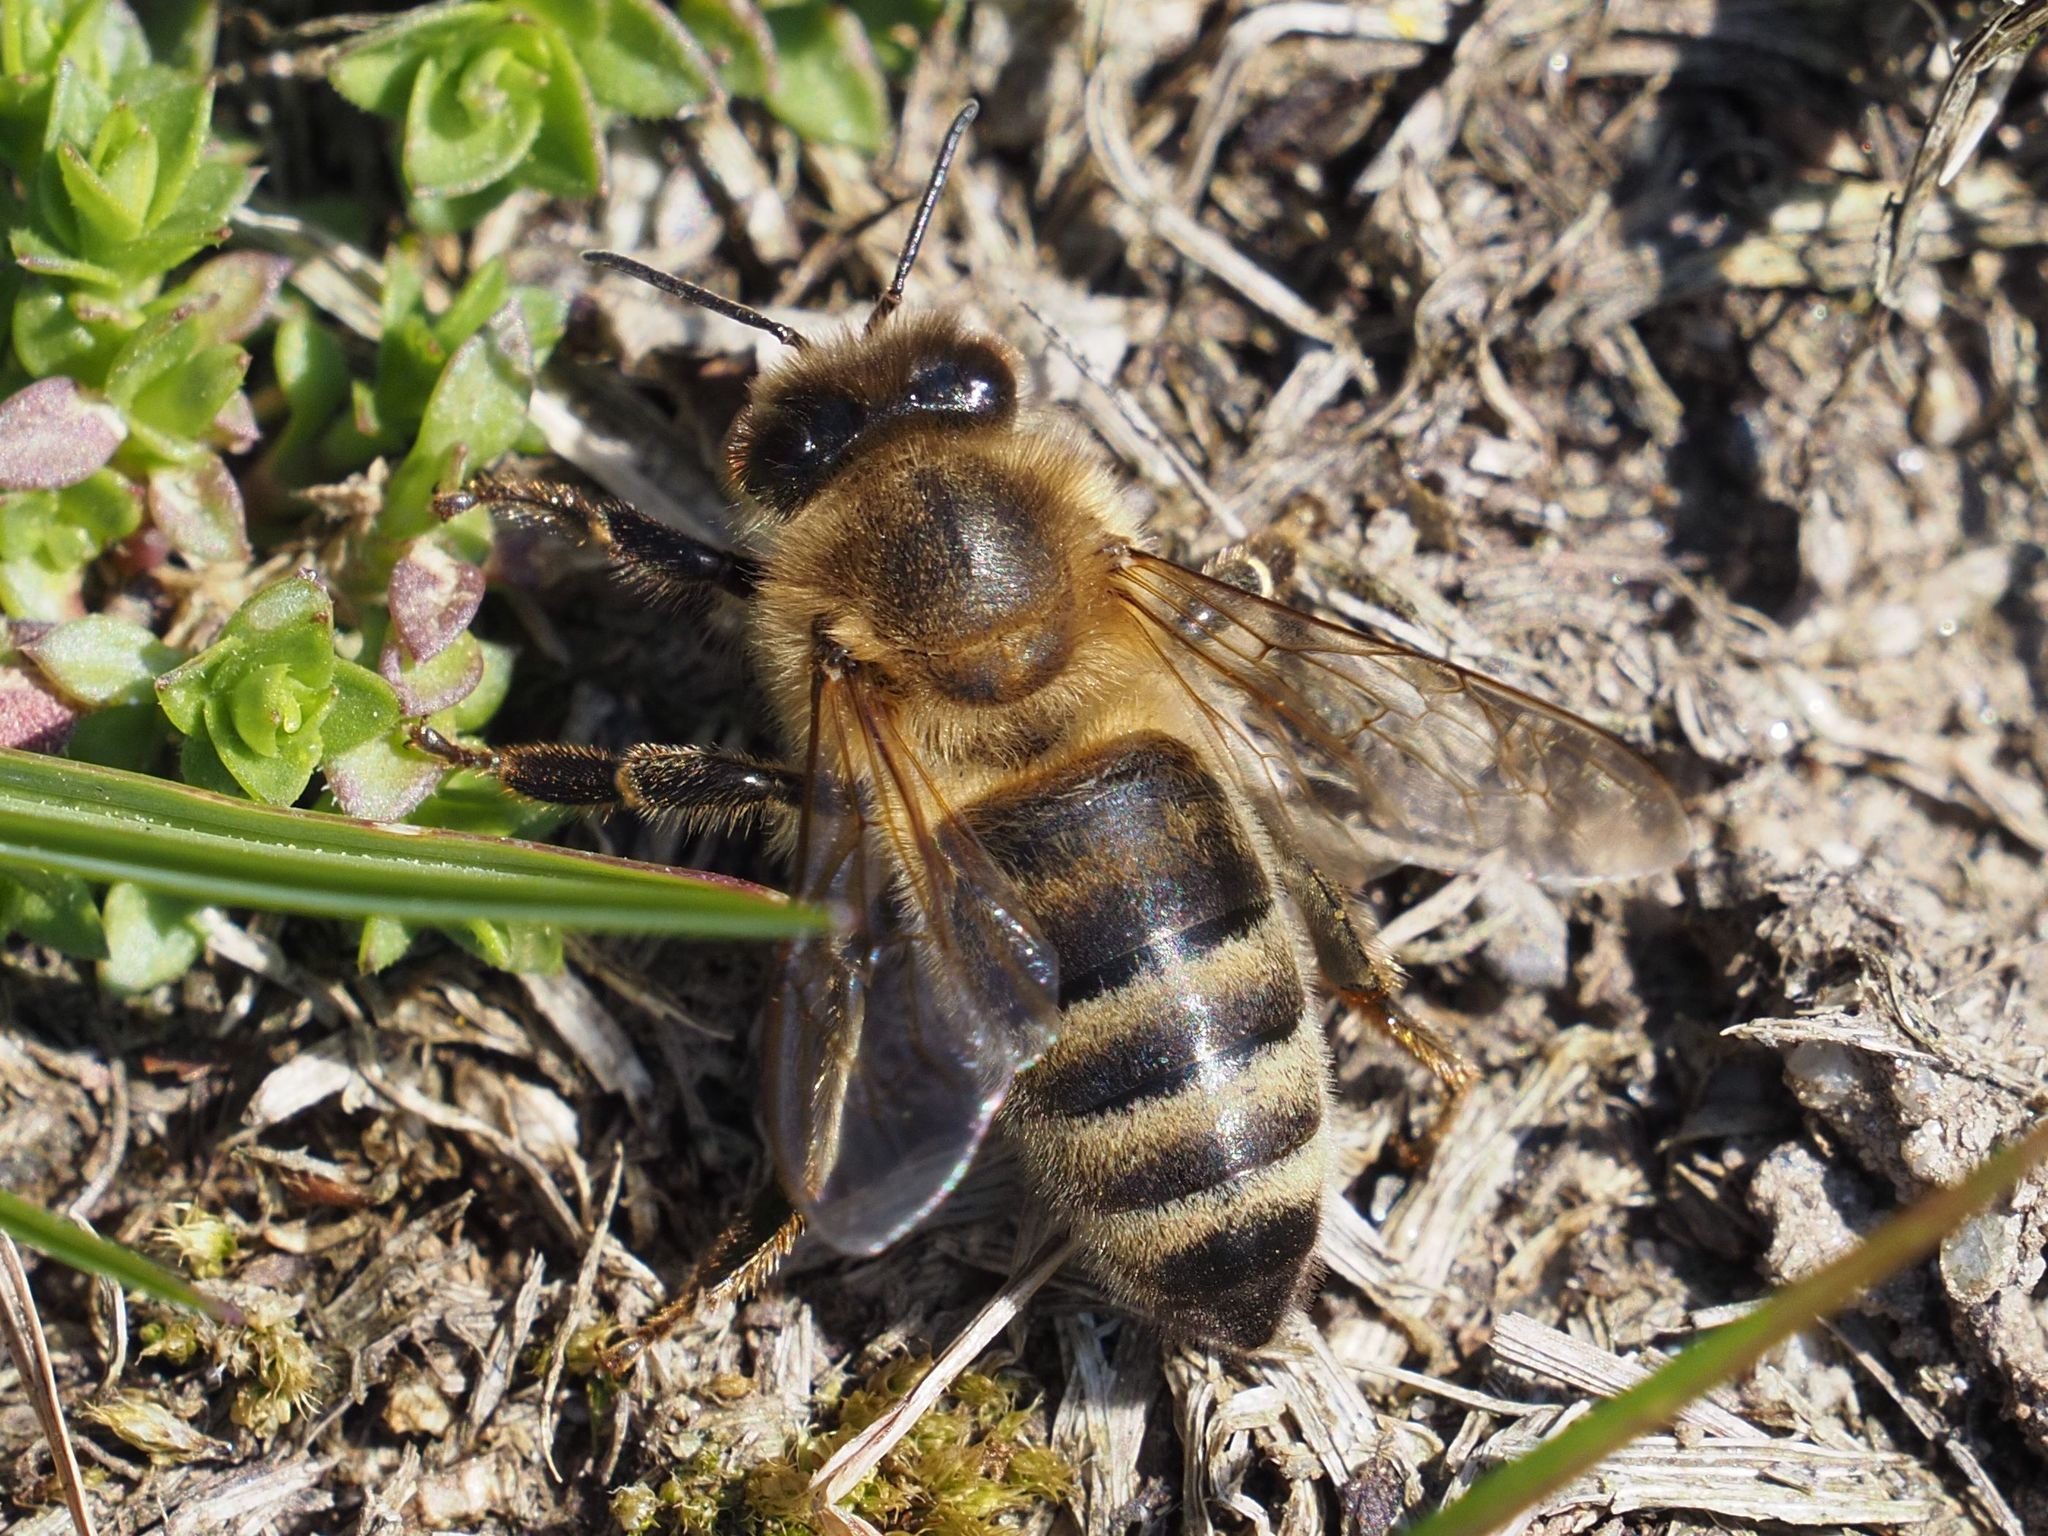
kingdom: Animalia
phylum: Arthropoda
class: Insecta
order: Hymenoptera
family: Apidae
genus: Apis
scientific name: Apis mellifera
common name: Honey bee
